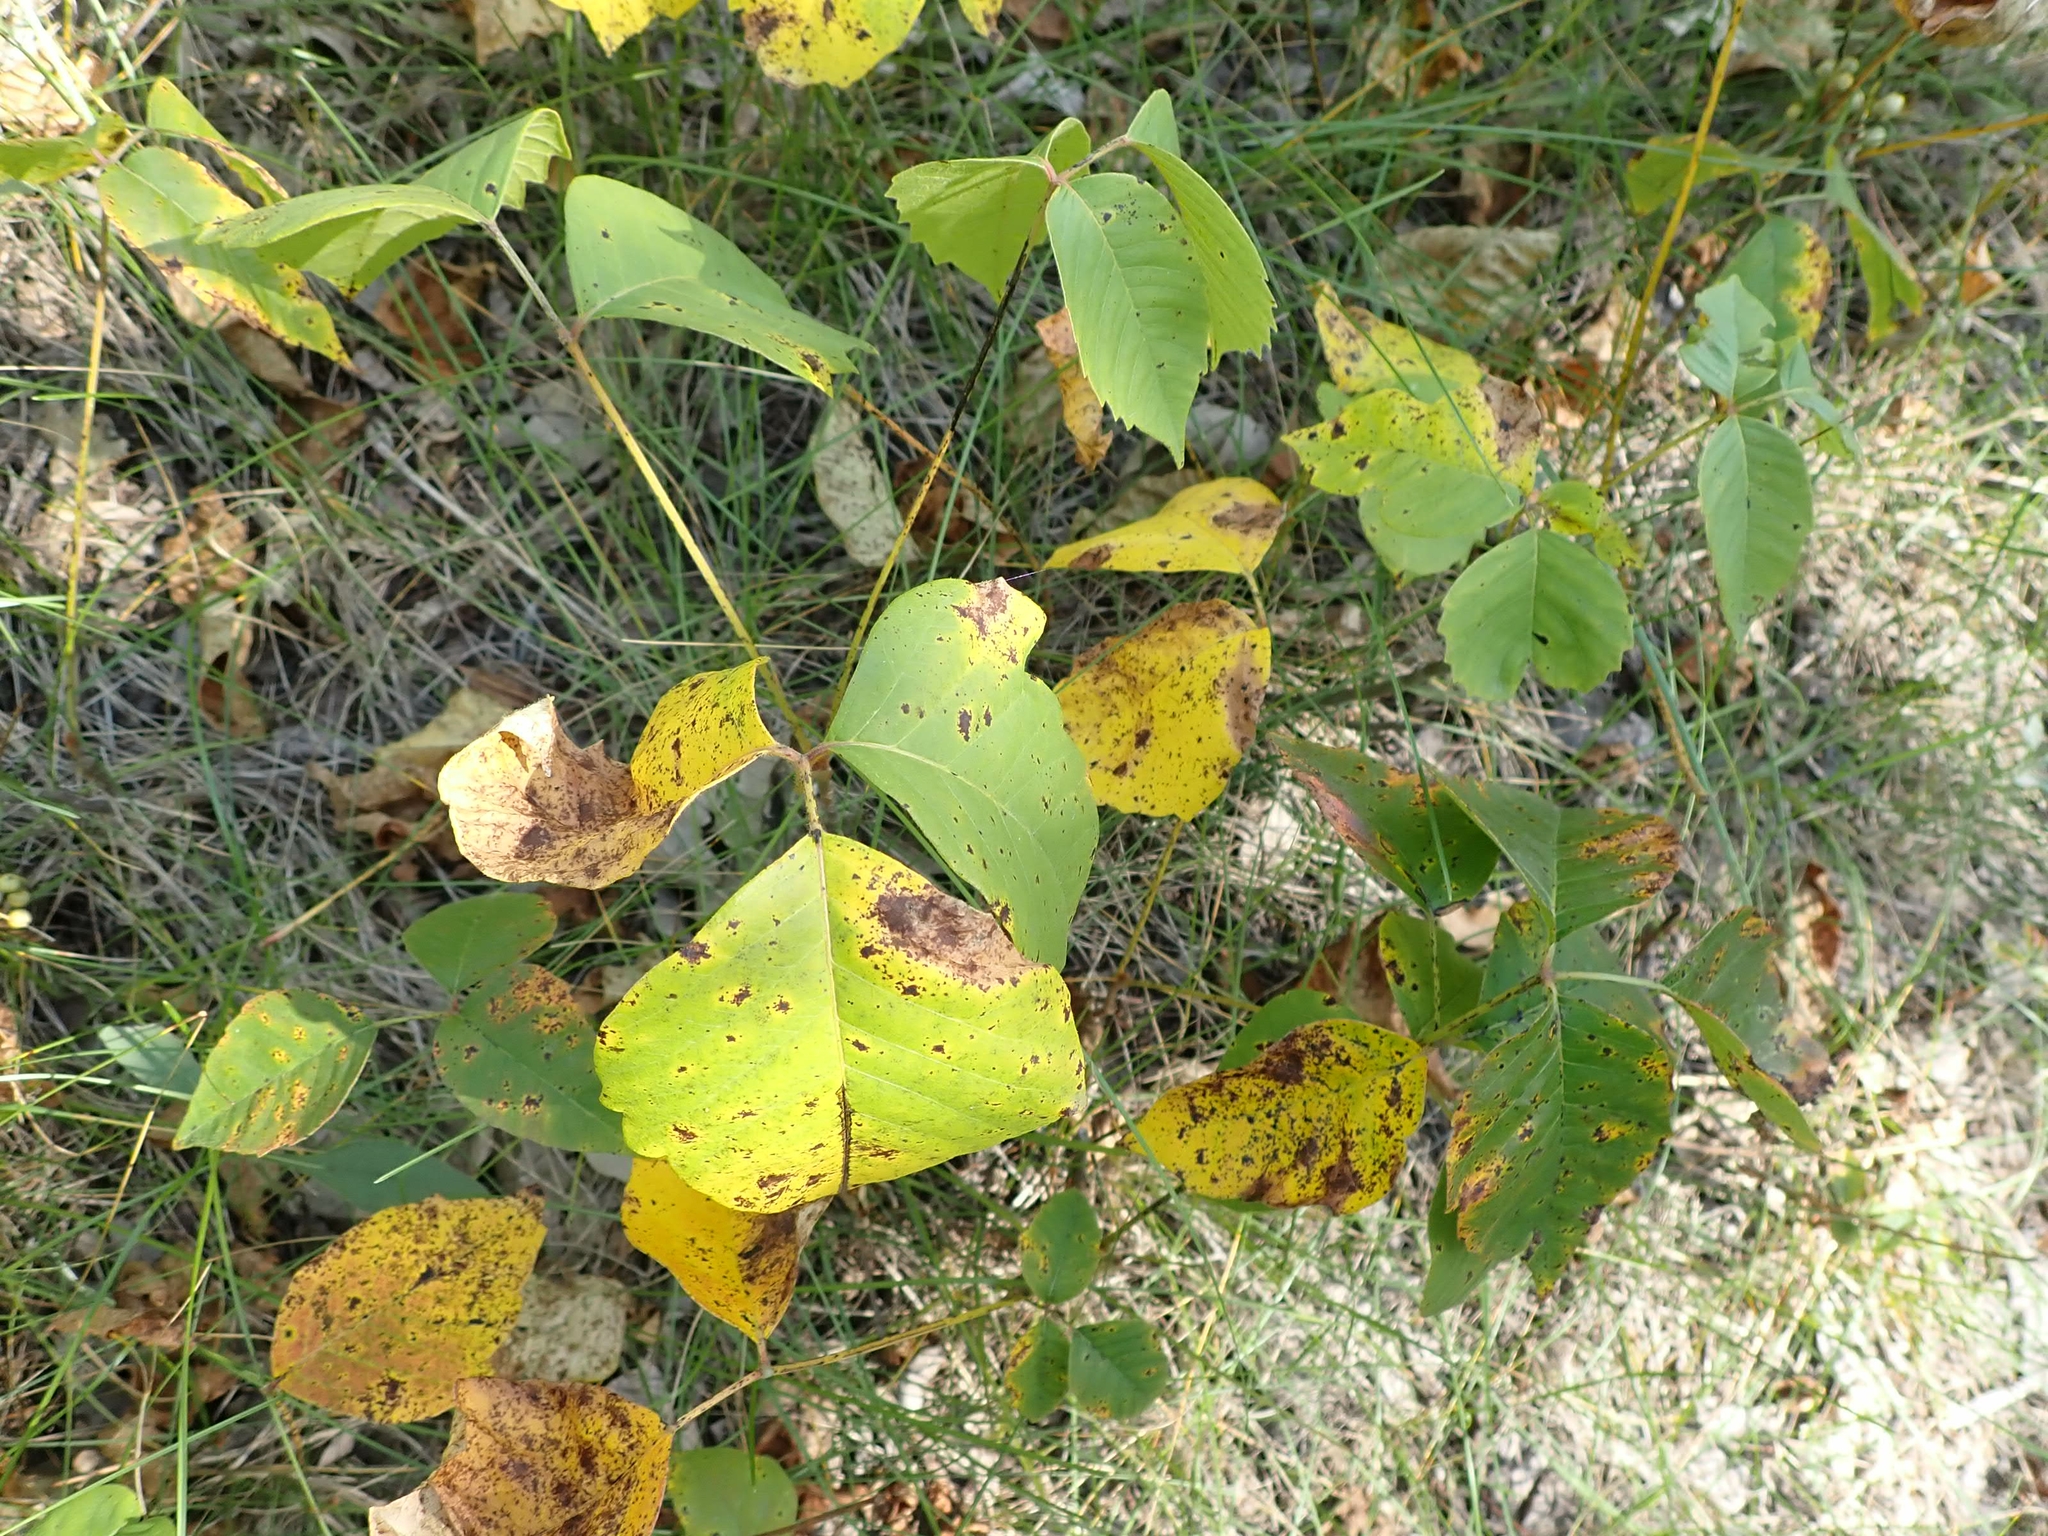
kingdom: Plantae
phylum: Tracheophyta
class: Magnoliopsida
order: Sapindales
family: Anacardiaceae
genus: Toxicodendron
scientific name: Toxicodendron rydbergii
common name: Rydberg's poison-ivy
